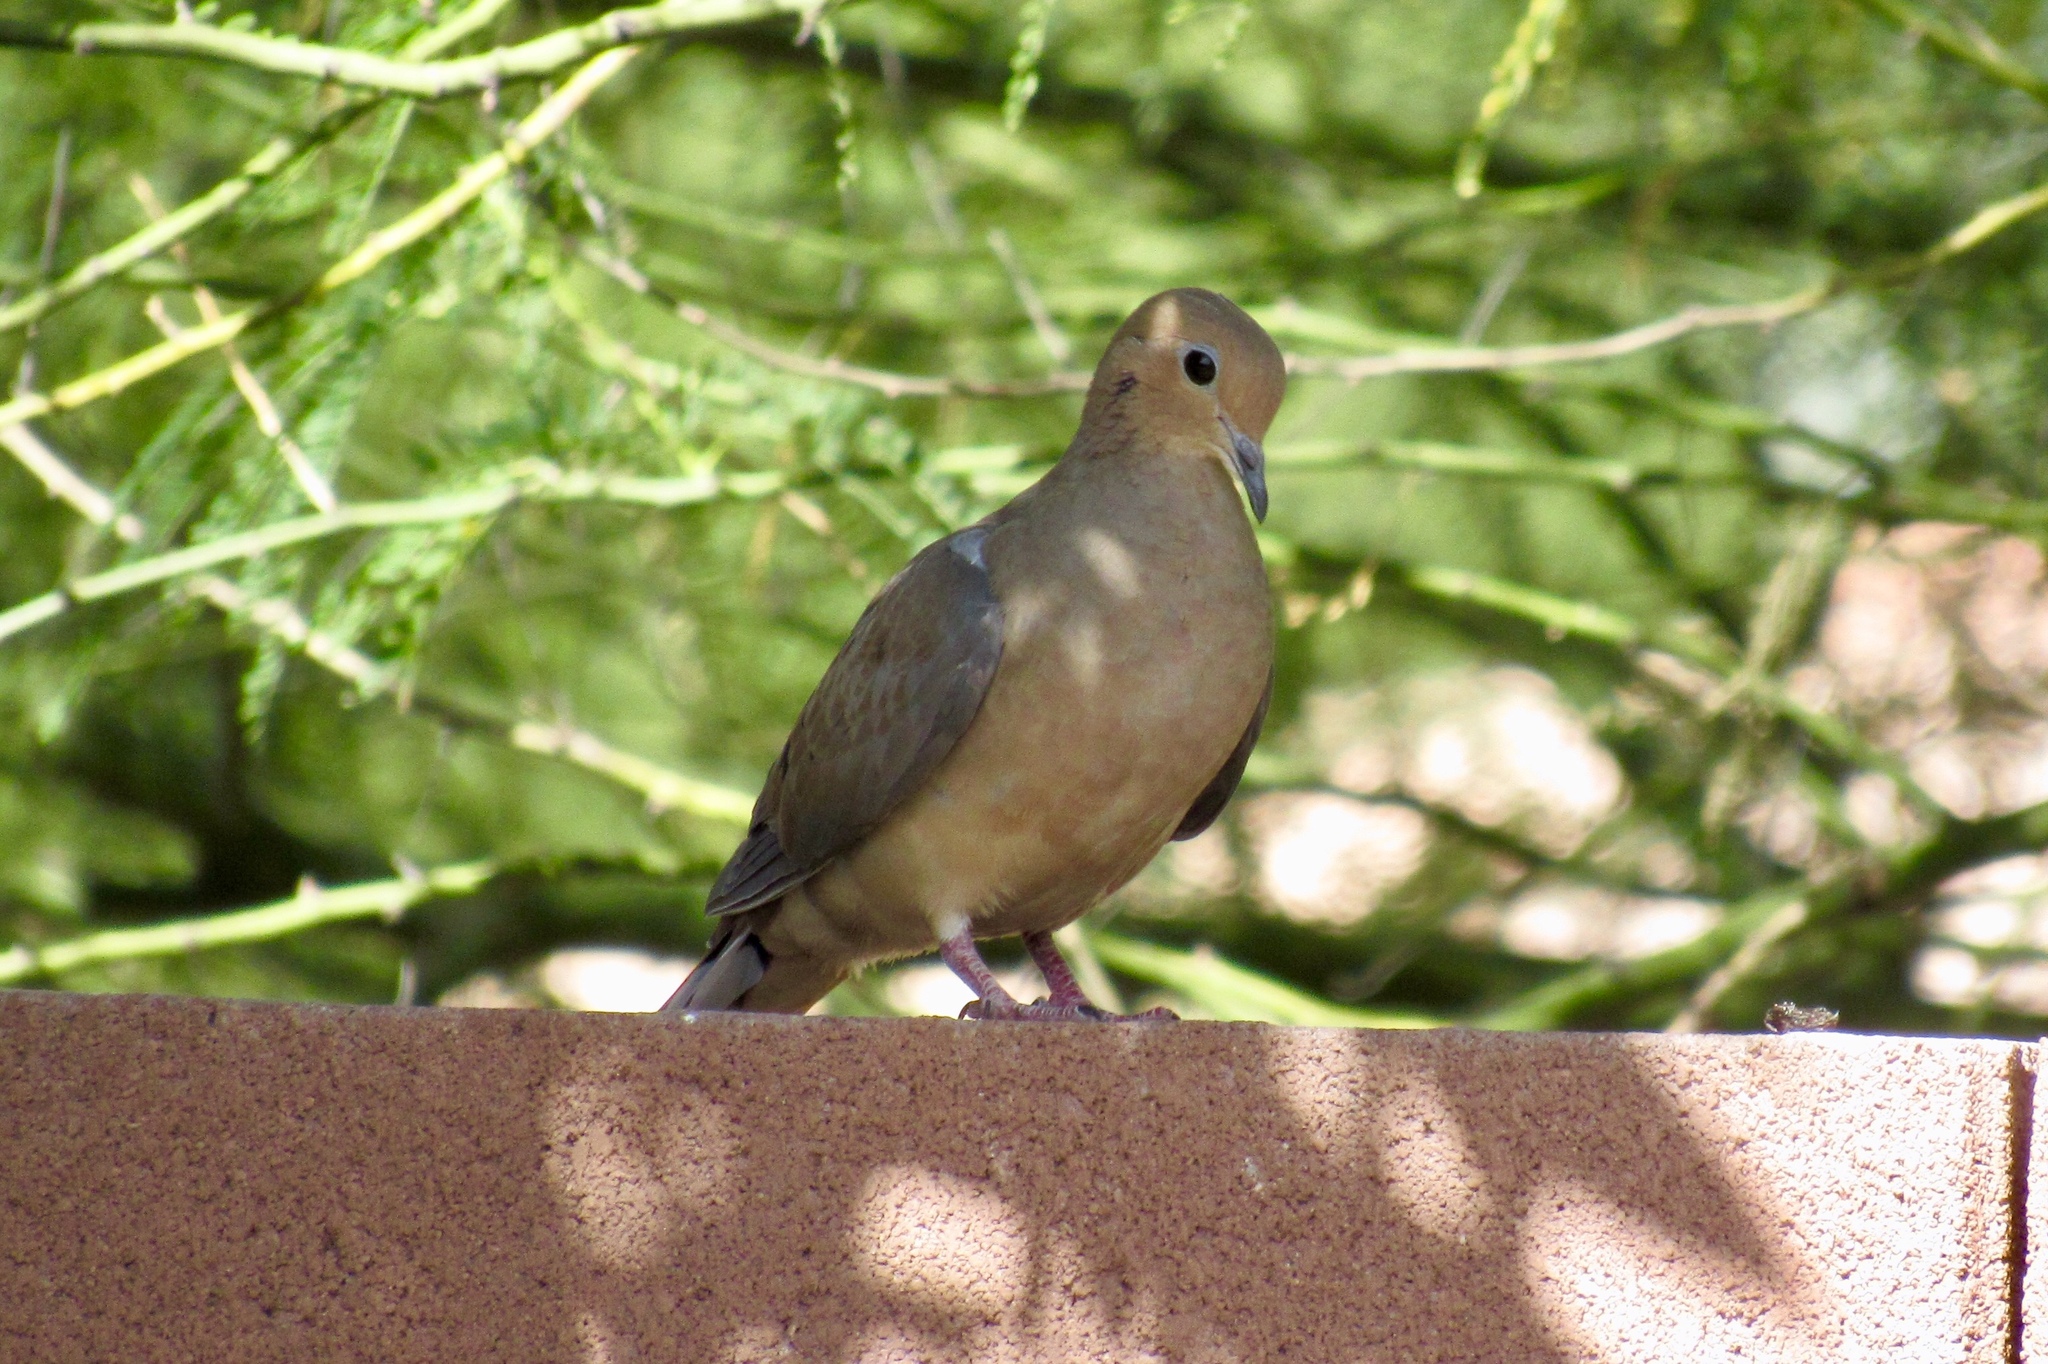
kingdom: Animalia
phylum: Chordata
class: Aves
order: Columbiformes
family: Columbidae
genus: Zenaida
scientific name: Zenaida macroura
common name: Mourning dove
